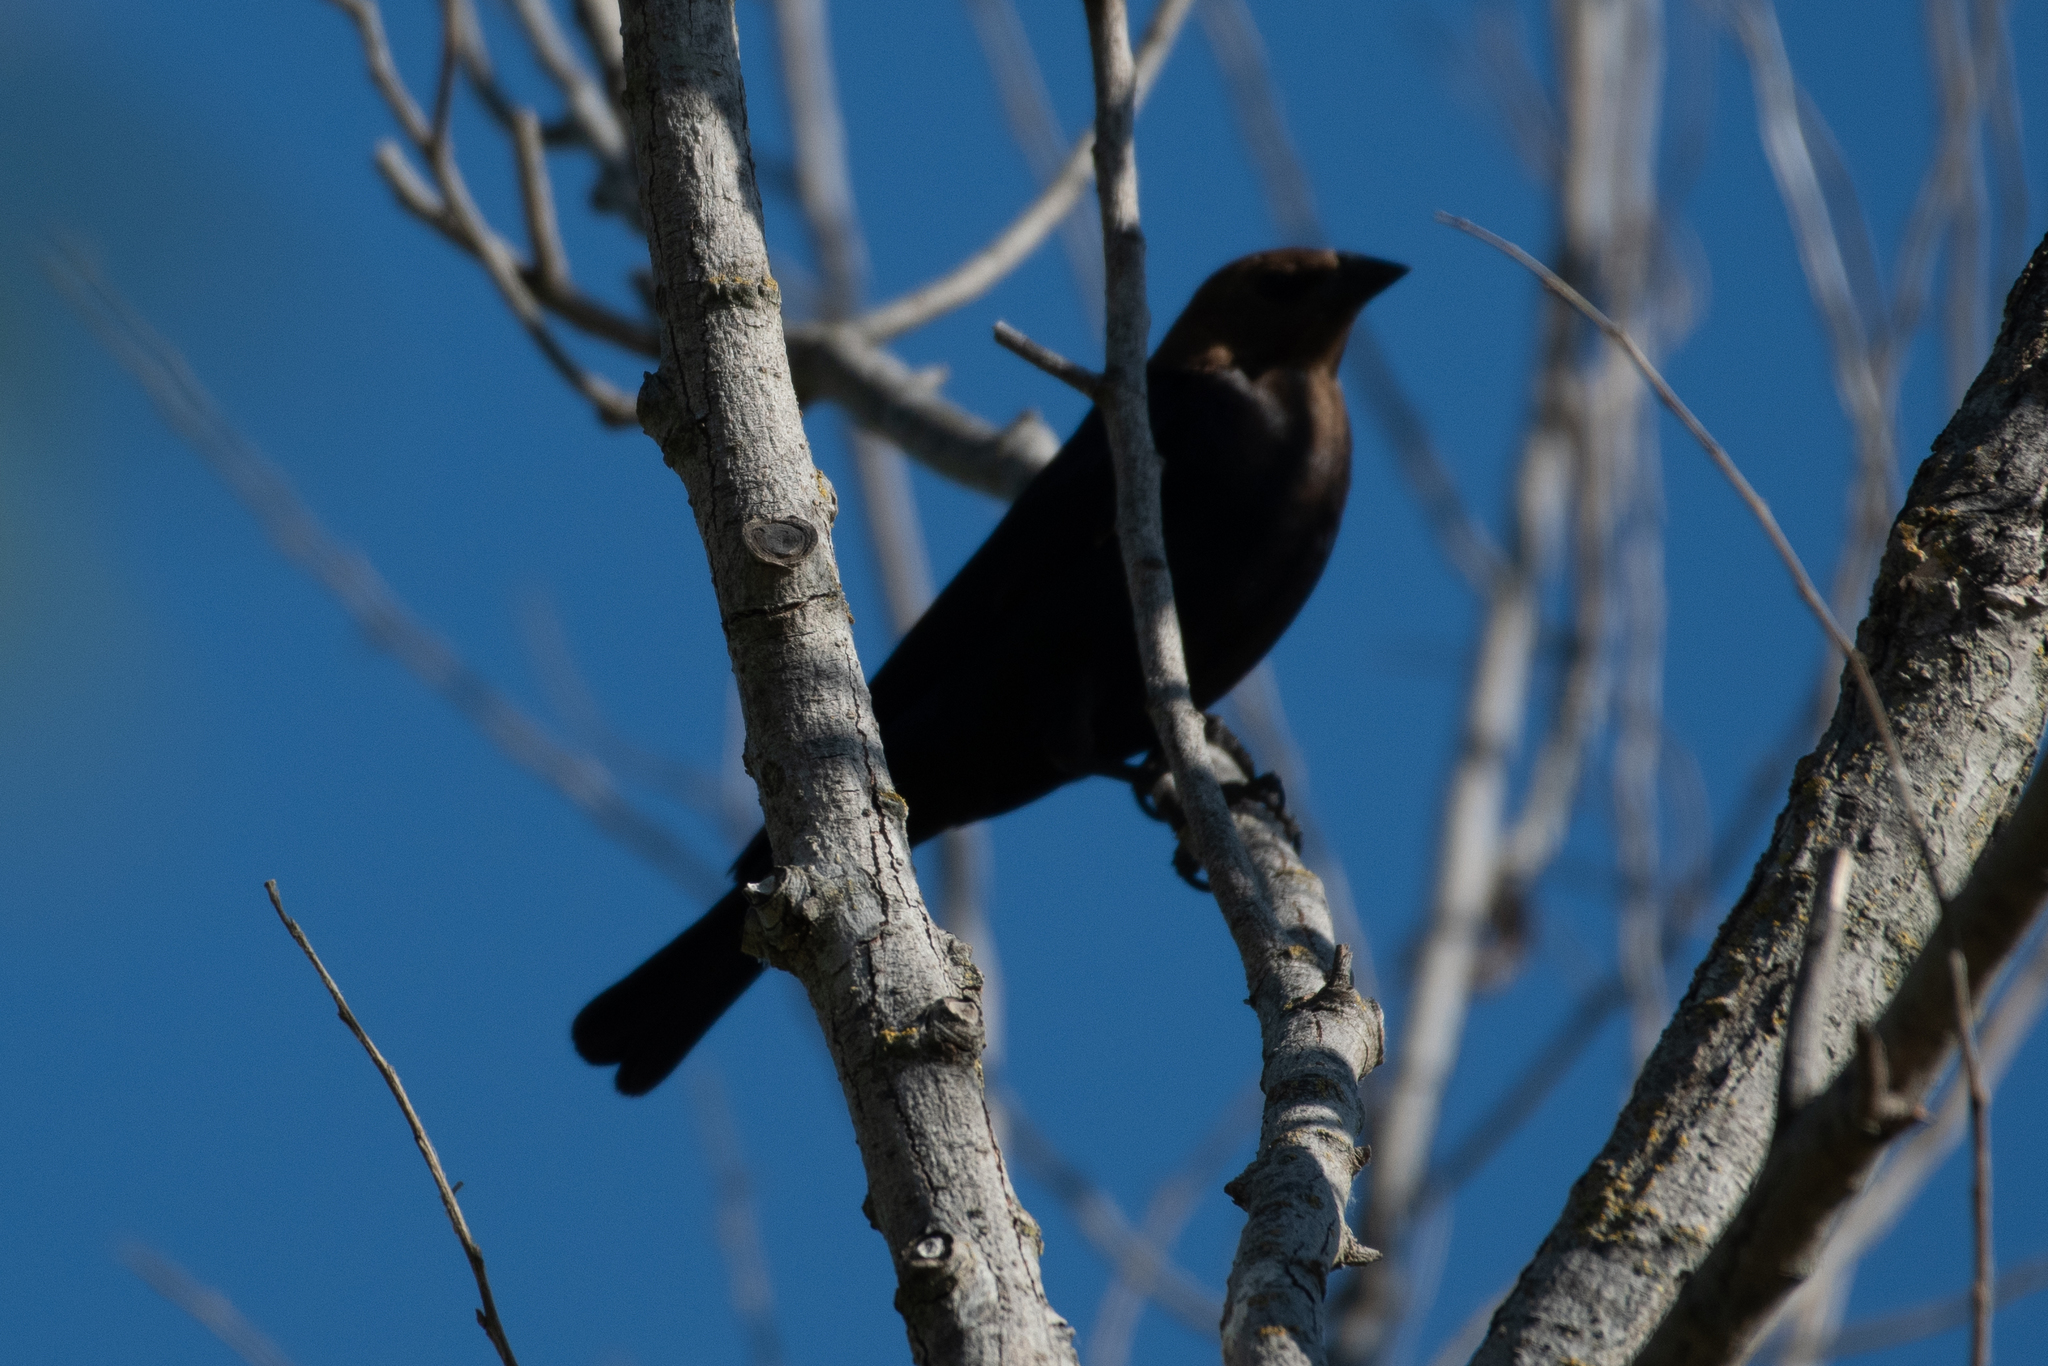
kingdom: Animalia
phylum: Chordata
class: Aves
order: Passeriformes
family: Icteridae
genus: Molothrus
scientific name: Molothrus ater
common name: Brown-headed cowbird
